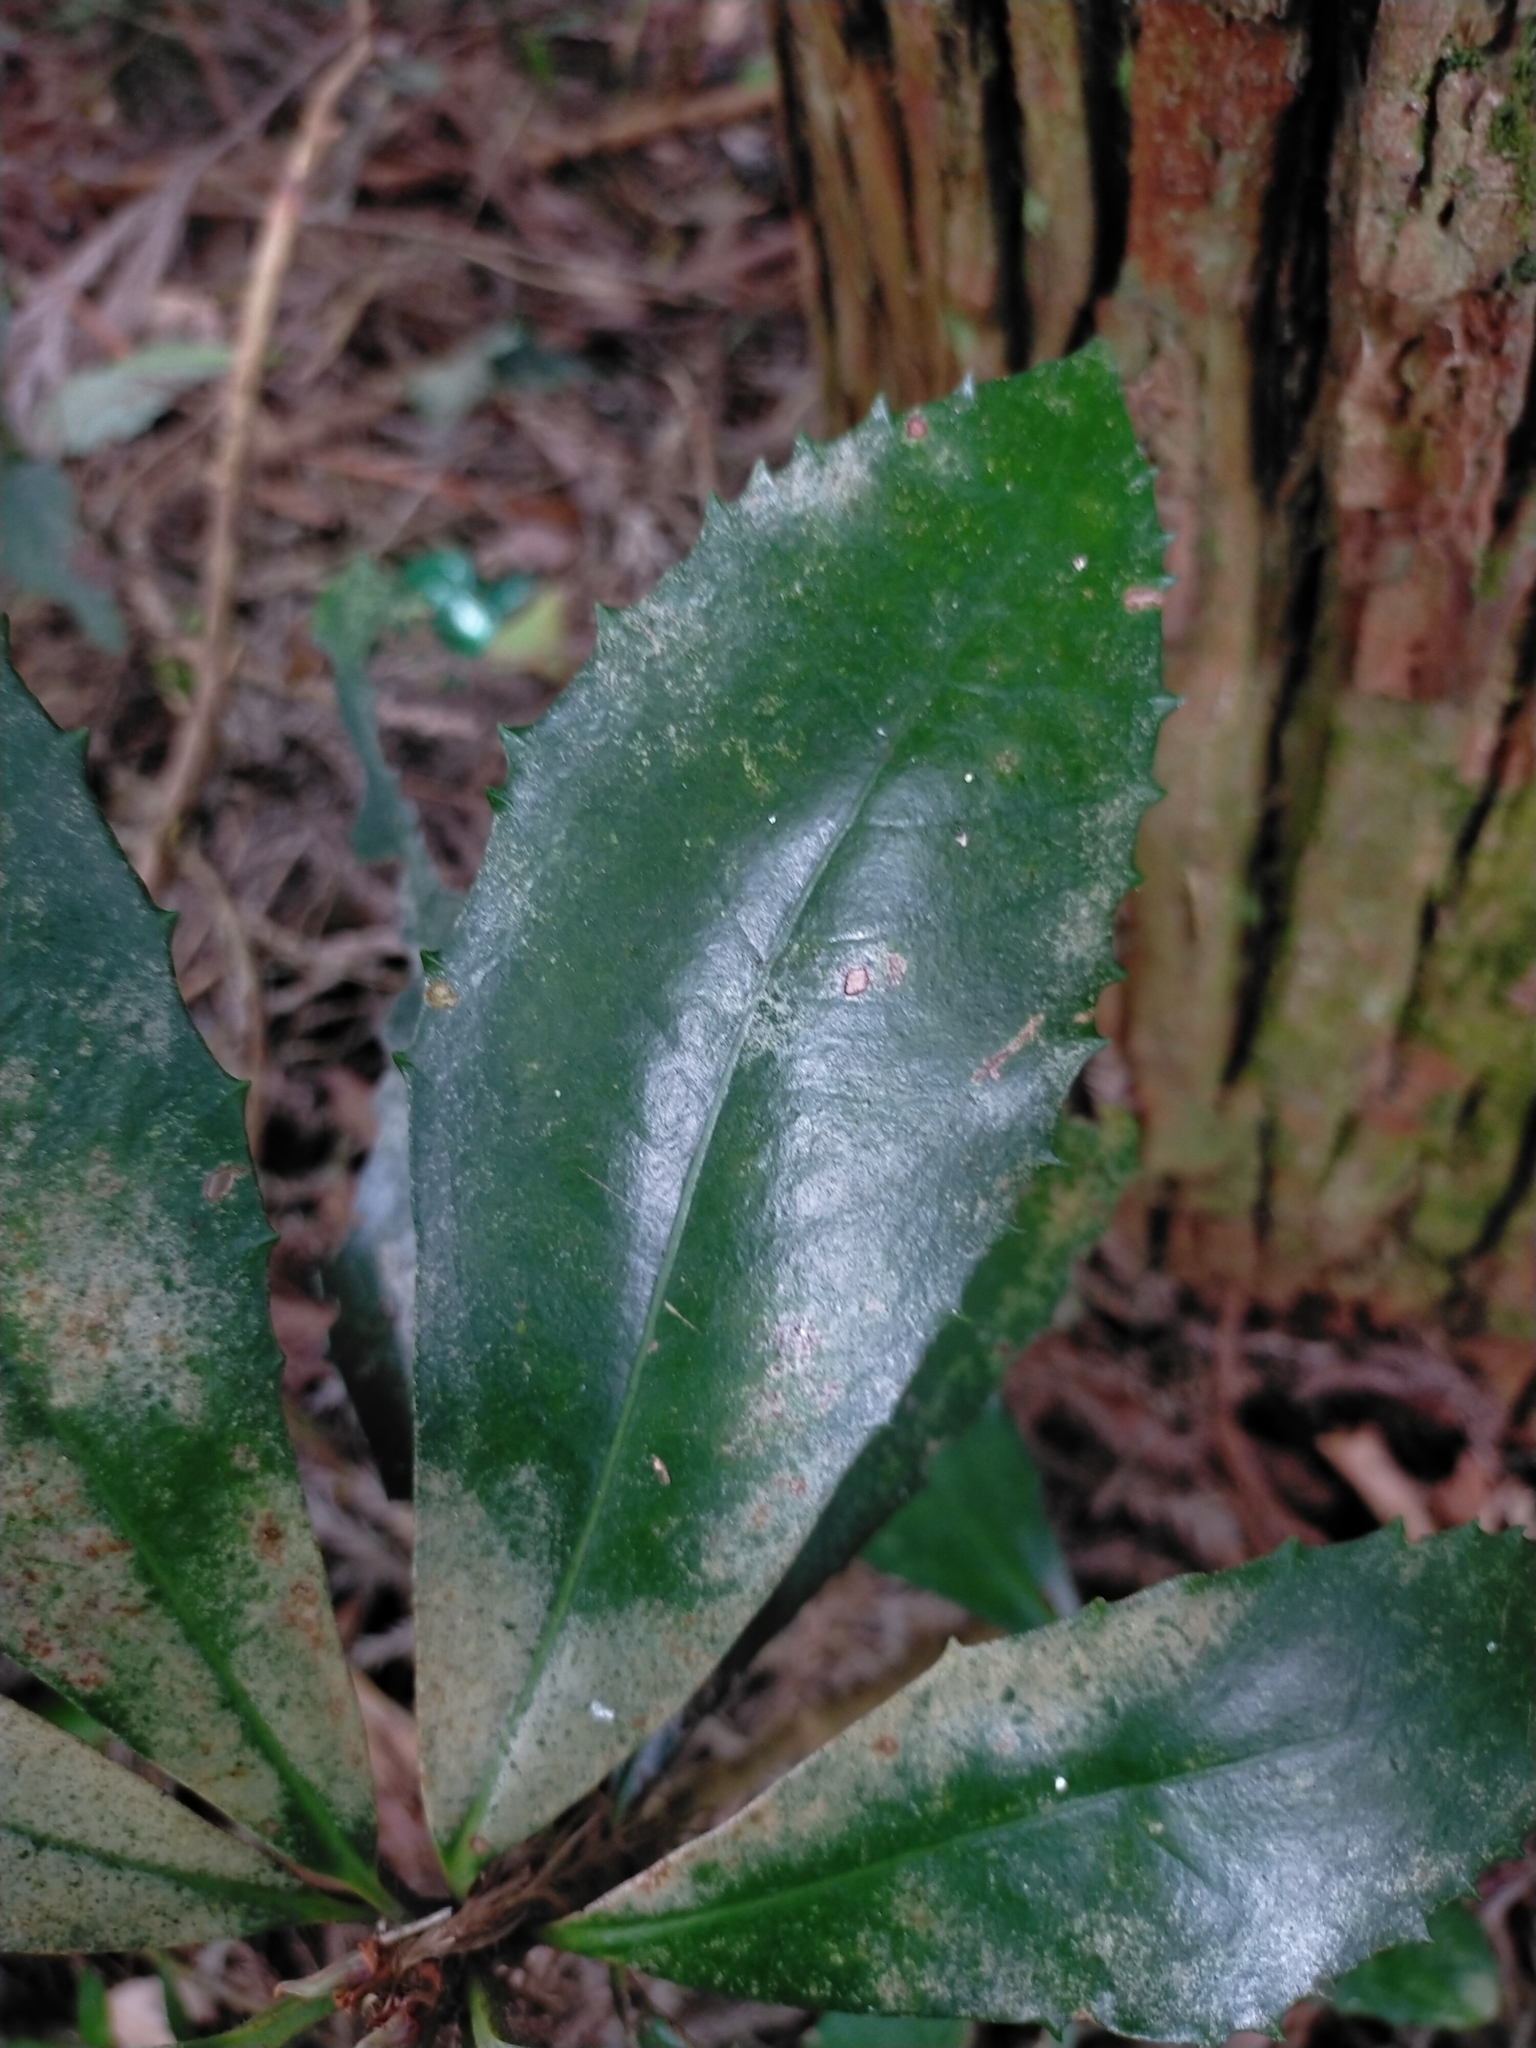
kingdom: Plantae
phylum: Tracheophyta
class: Magnoliopsida
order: Ericales
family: Primulaceae
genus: Ardisia
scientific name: Ardisia cornudentata
